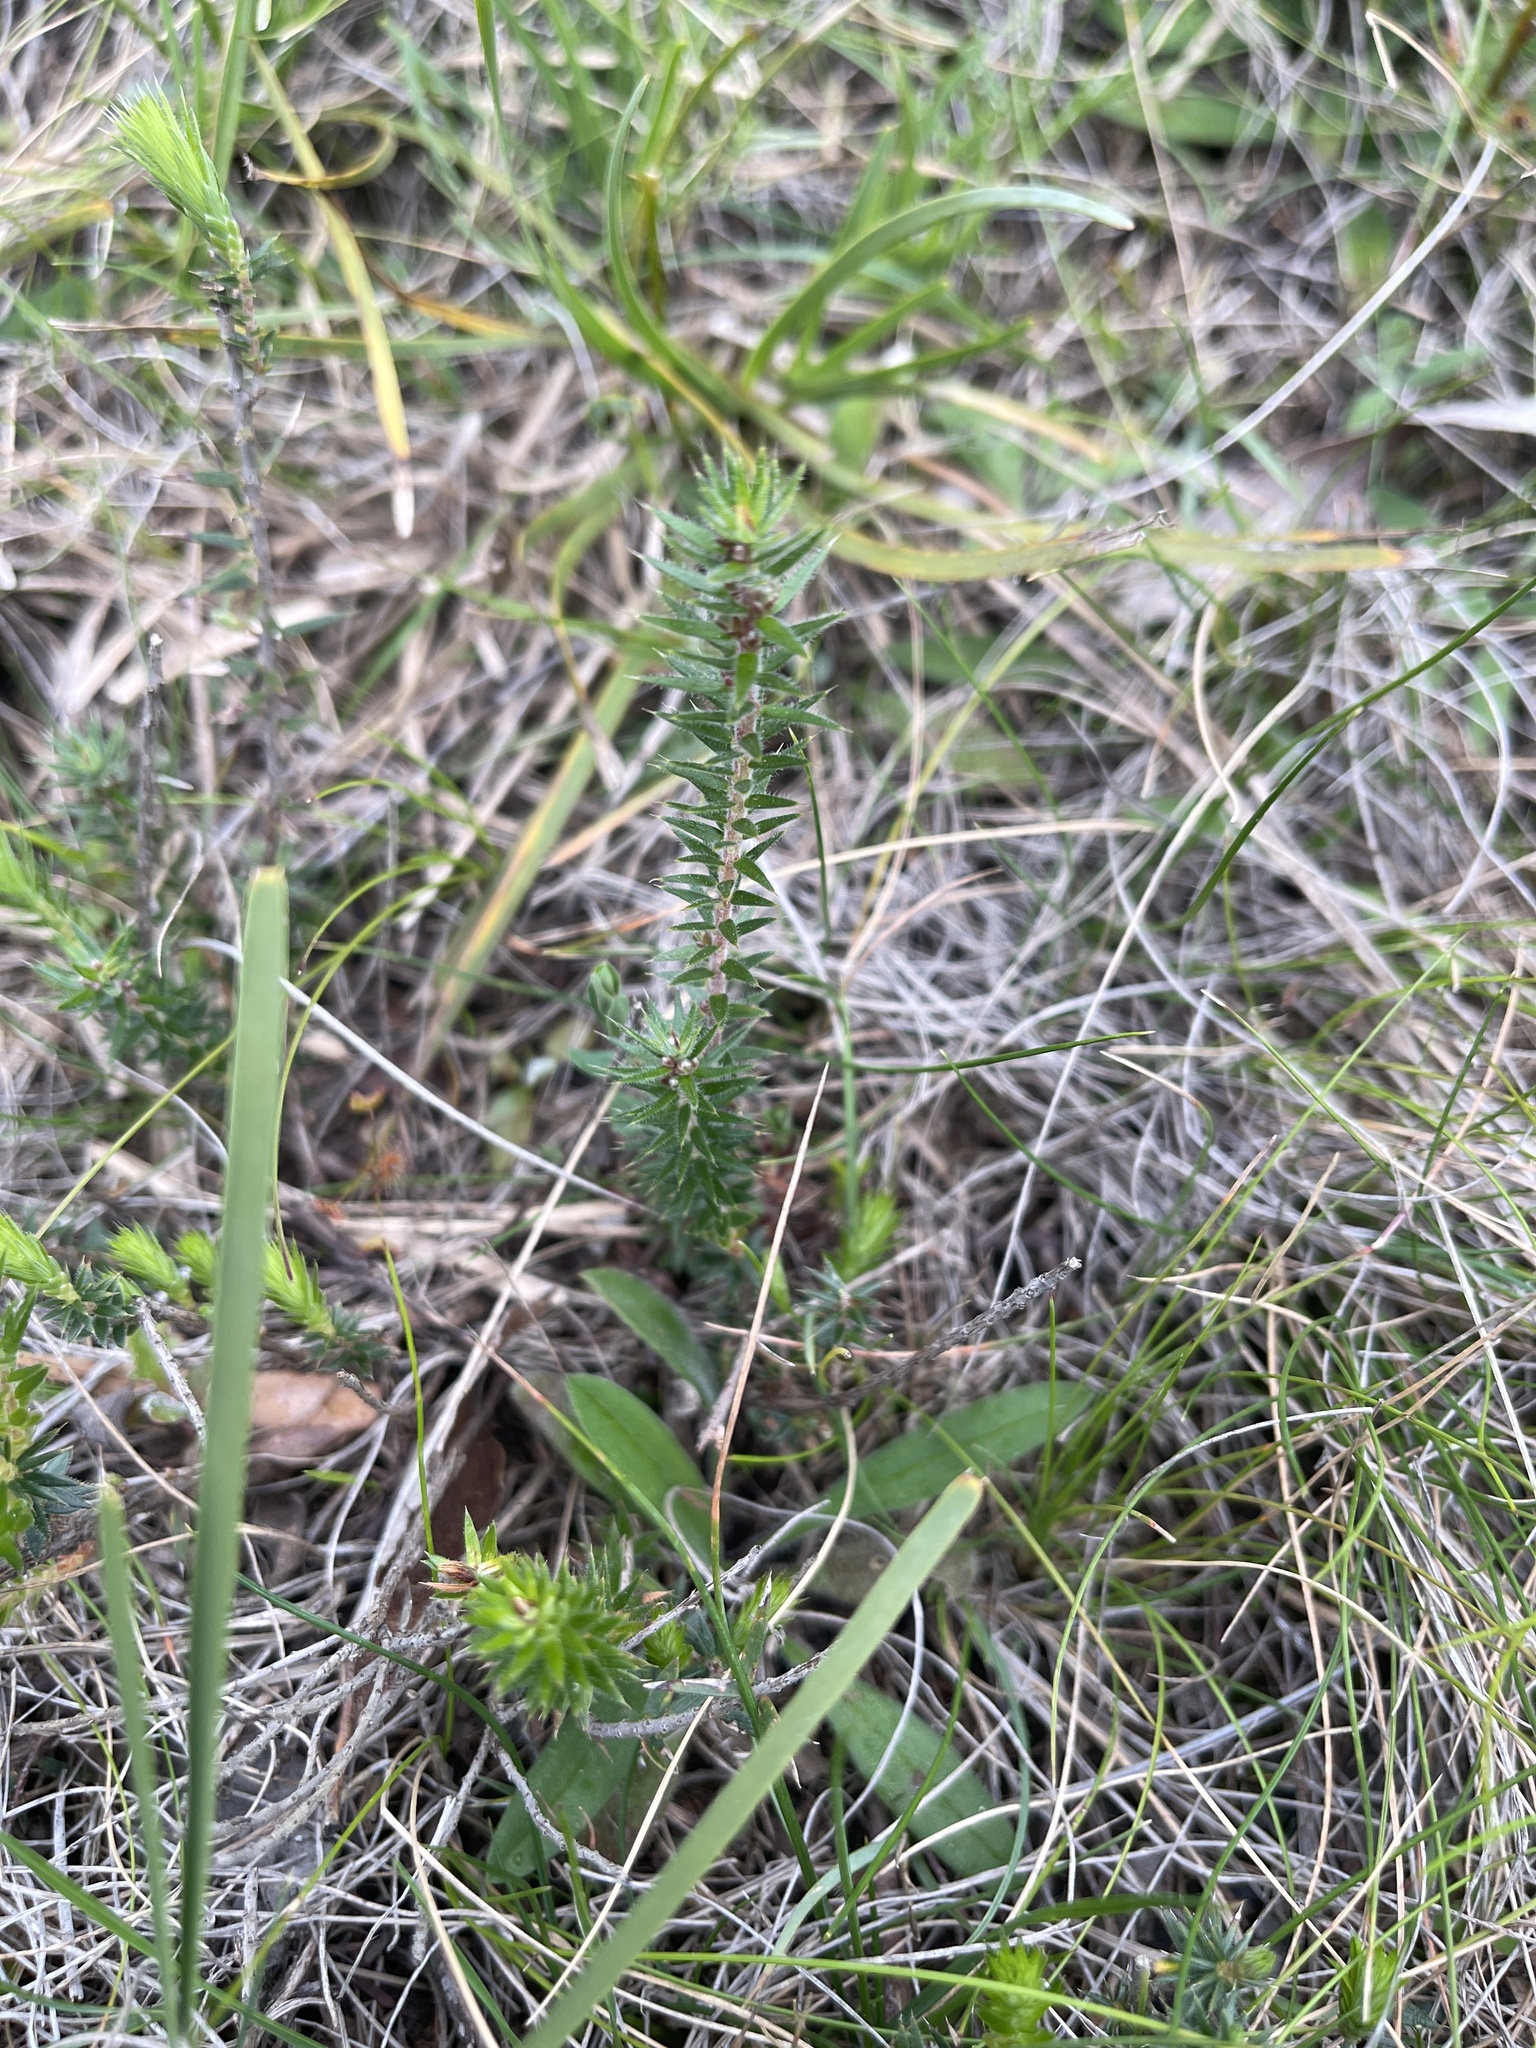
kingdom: Plantae
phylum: Tracheophyta
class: Magnoliopsida
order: Ericales
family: Ericaceae
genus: Acrotriche
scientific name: Acrotriche serrulata
